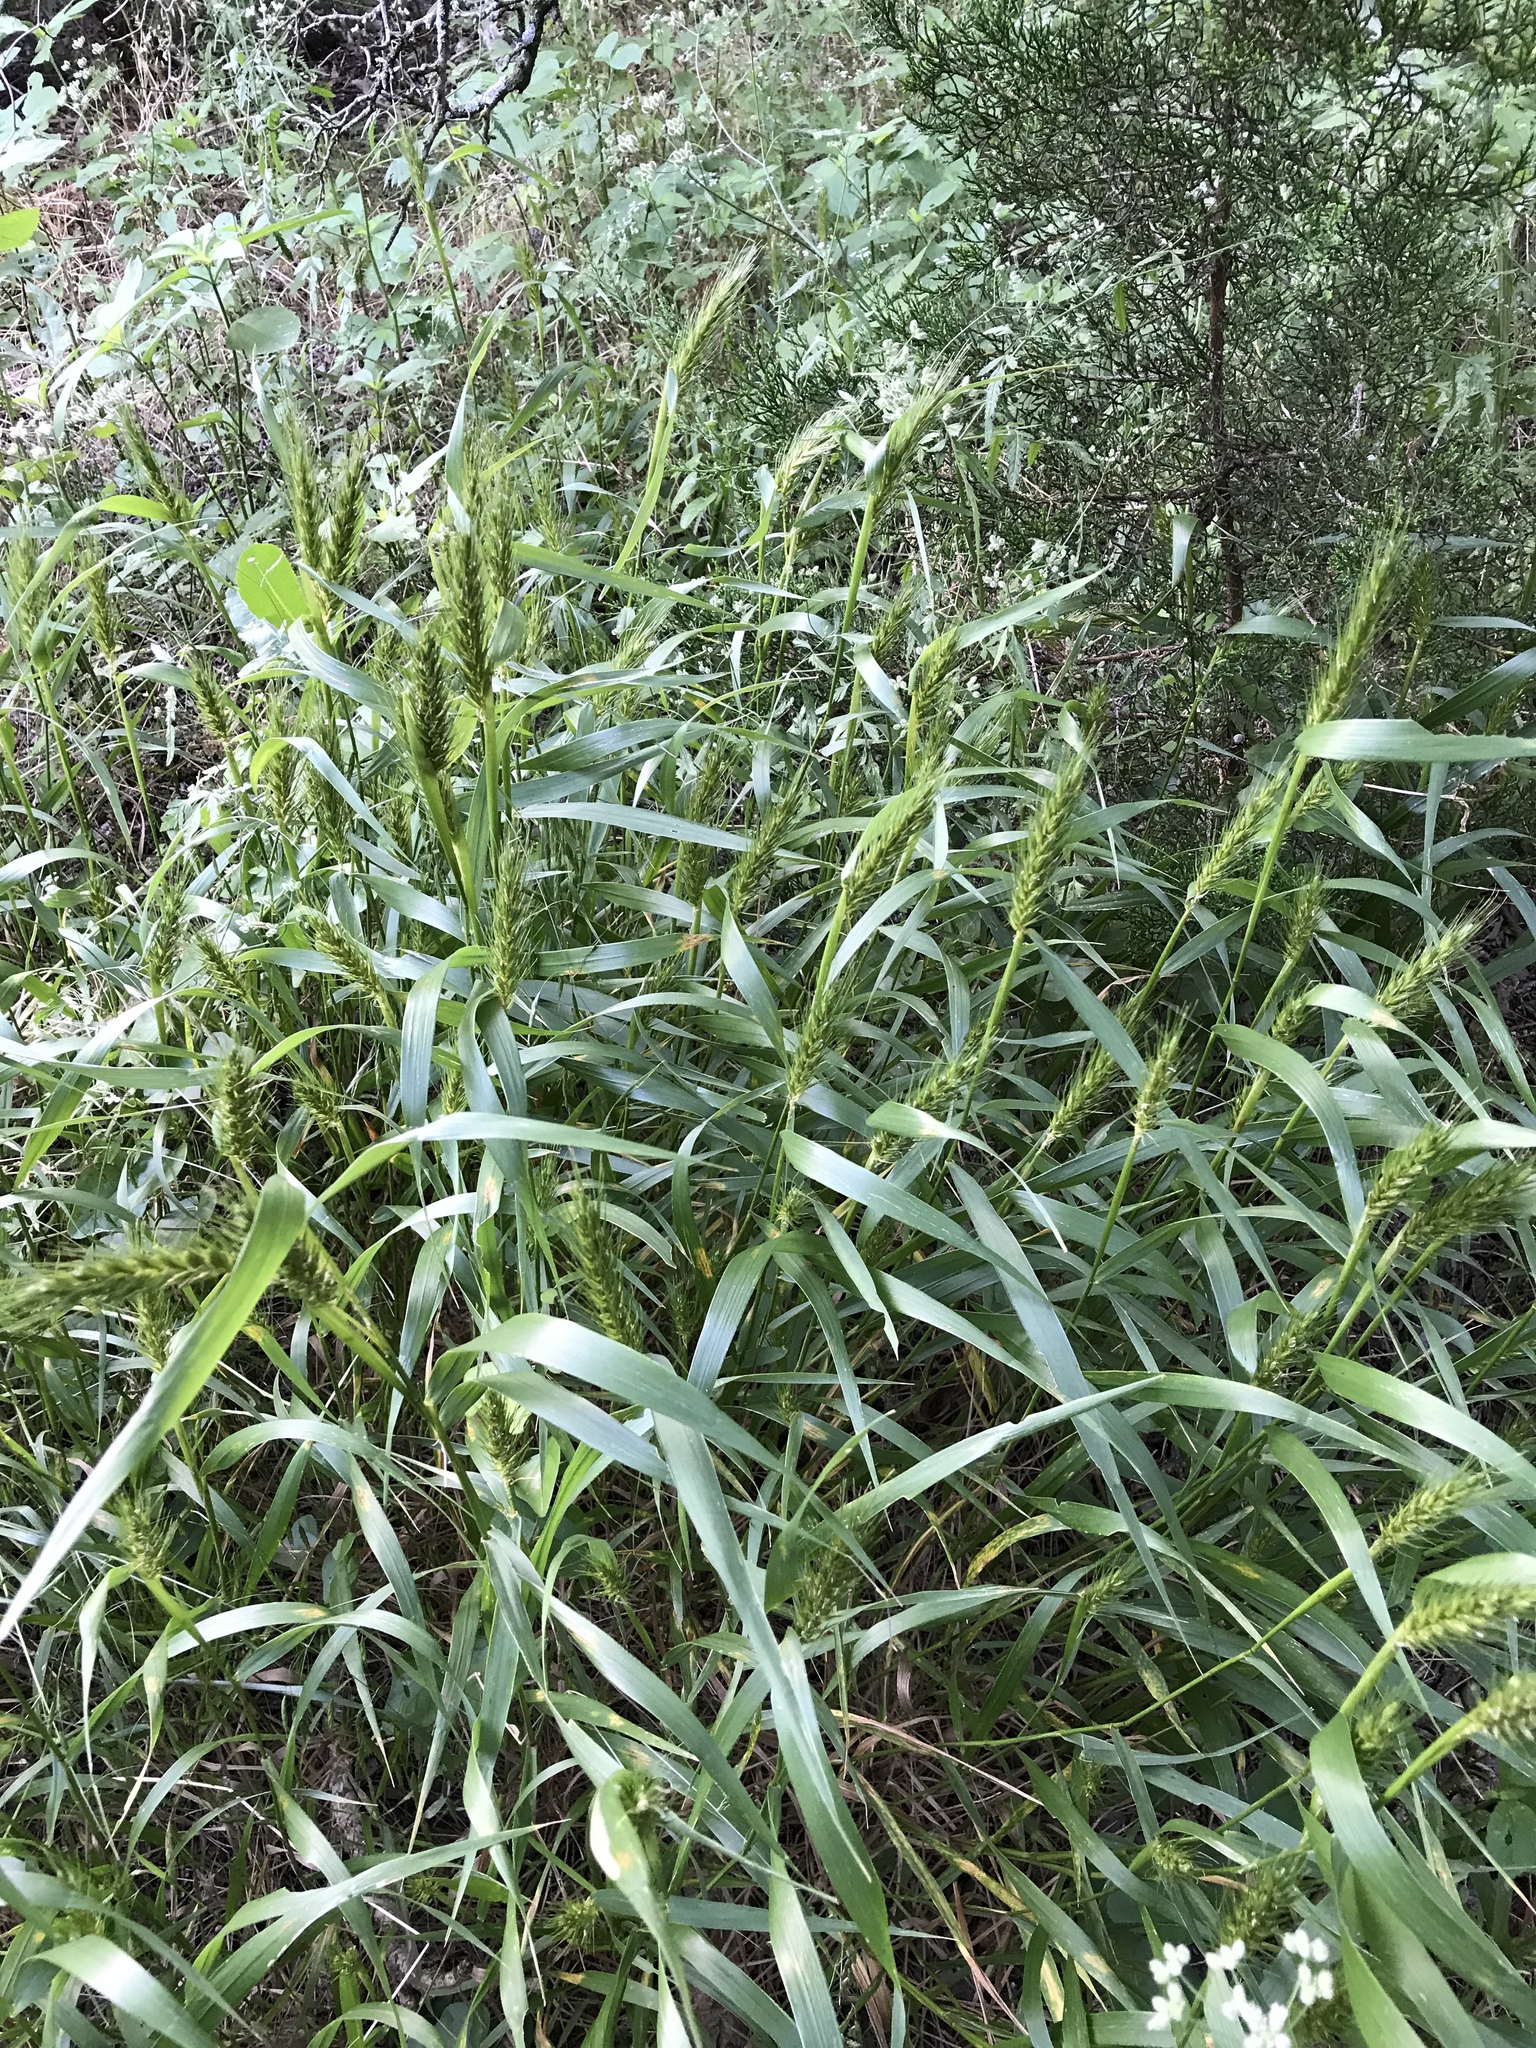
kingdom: Plantae
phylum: Tracheophyta
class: Liliopsida
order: Poales
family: Poaceae
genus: Elymus
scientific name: Elymus virginicus
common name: Common eastern wildrye
